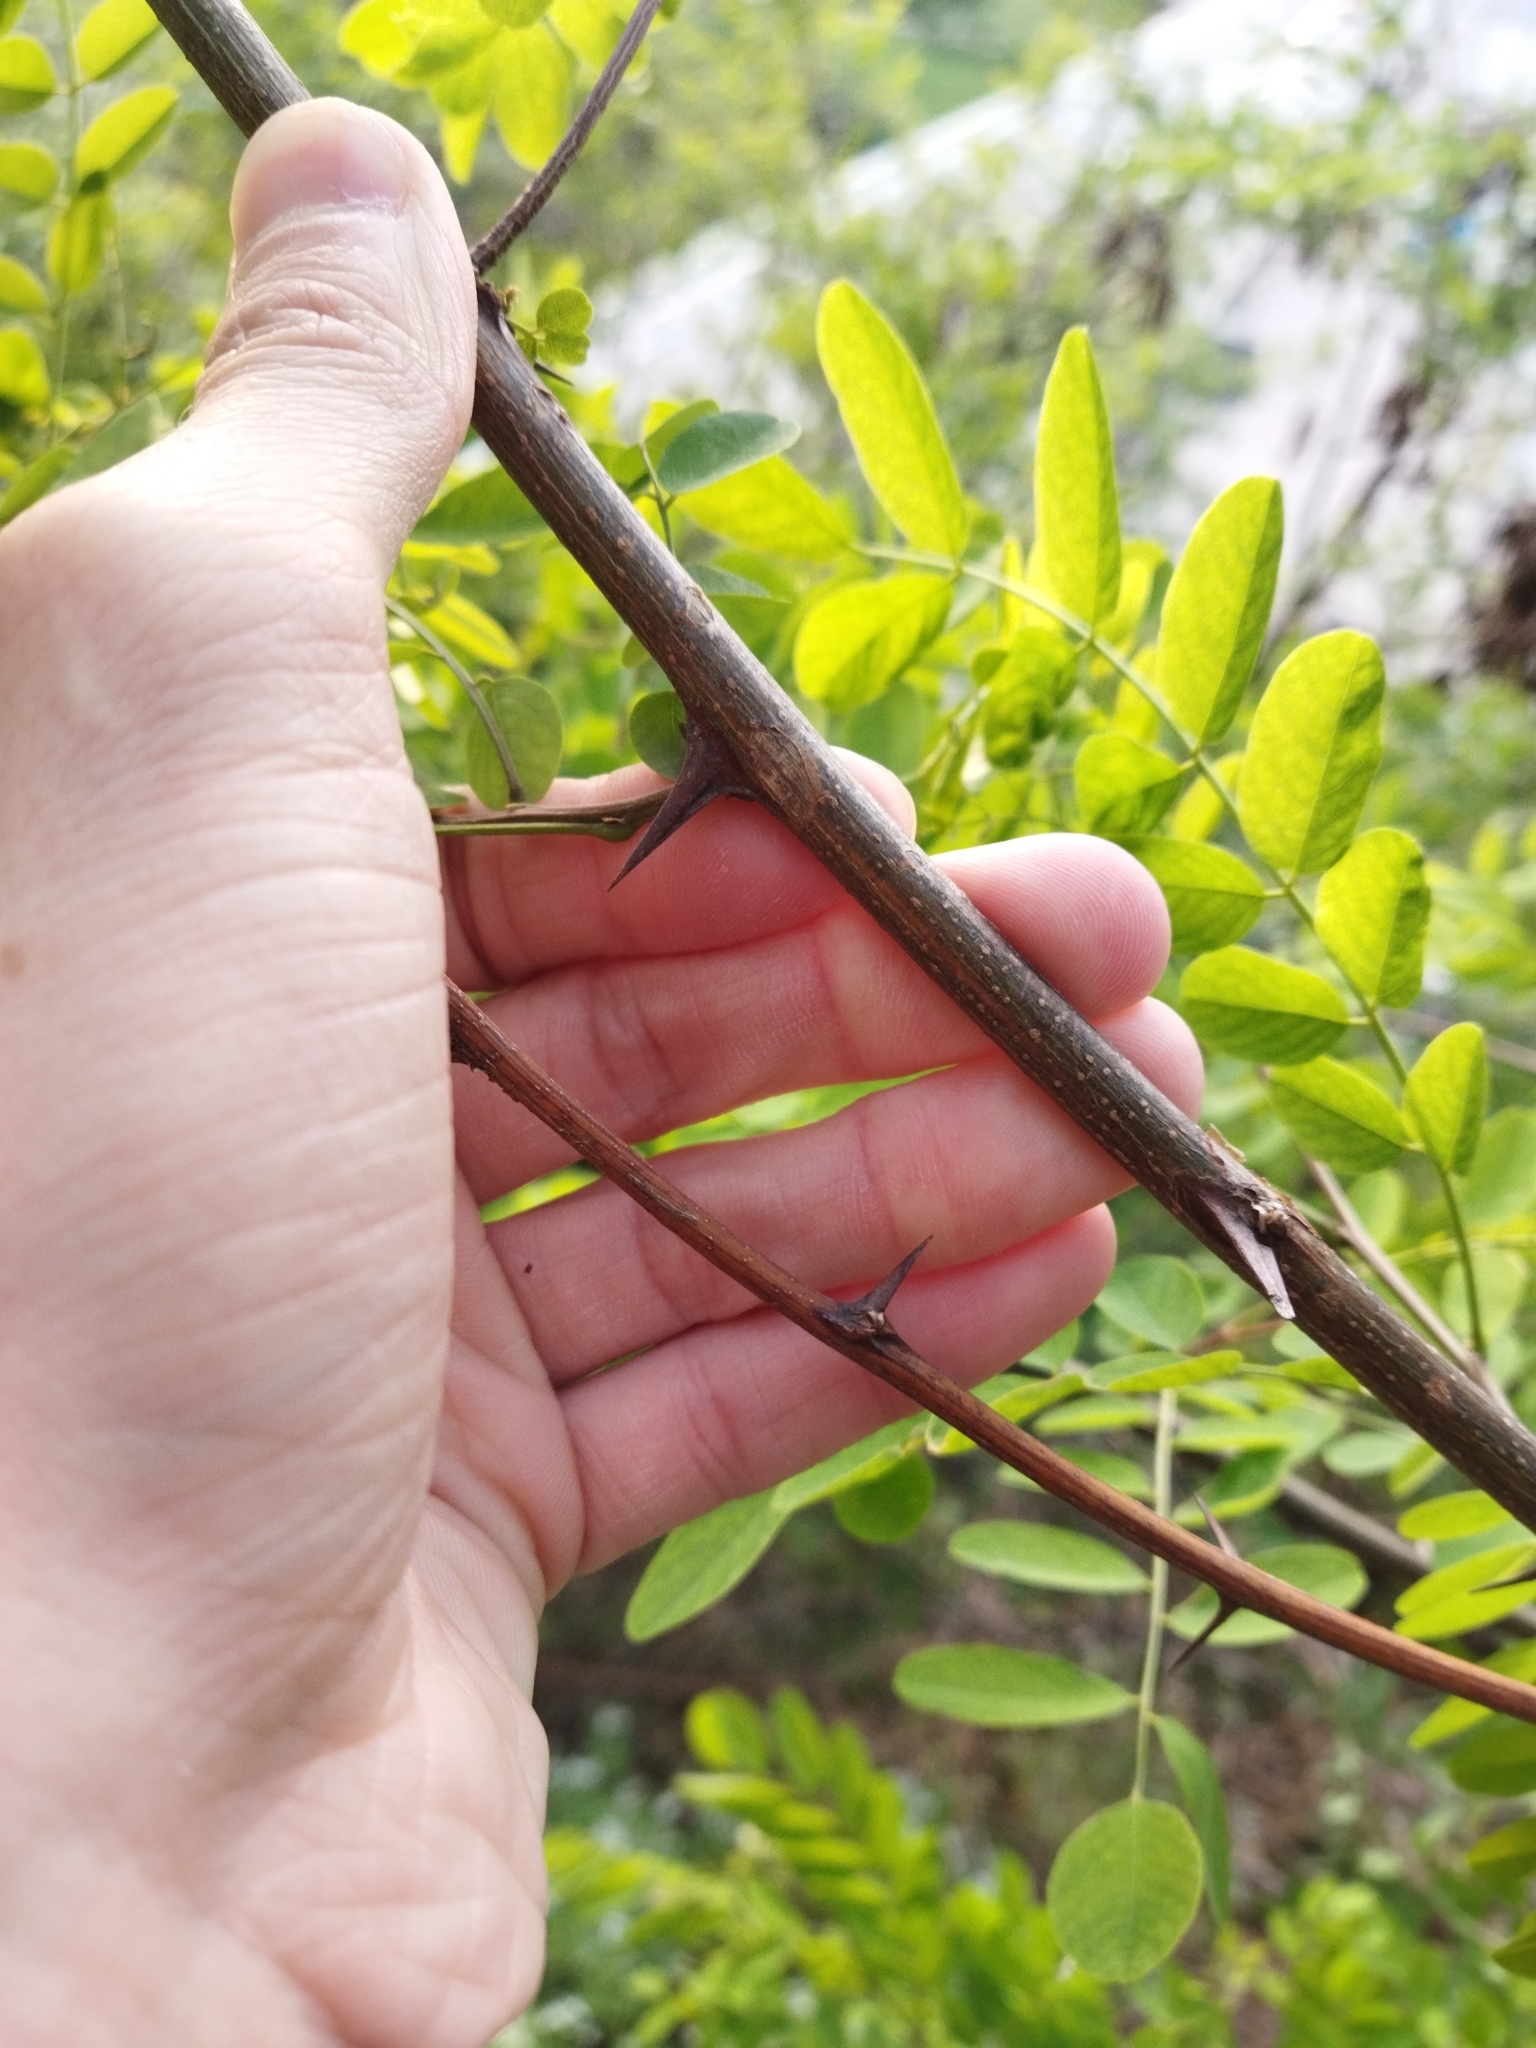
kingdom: Plantae
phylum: Tracheophyta
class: Magnoliopsida
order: Fabales
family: Fabaceae
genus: Robinia
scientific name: Robinia pseudoacacia
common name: Black locust
